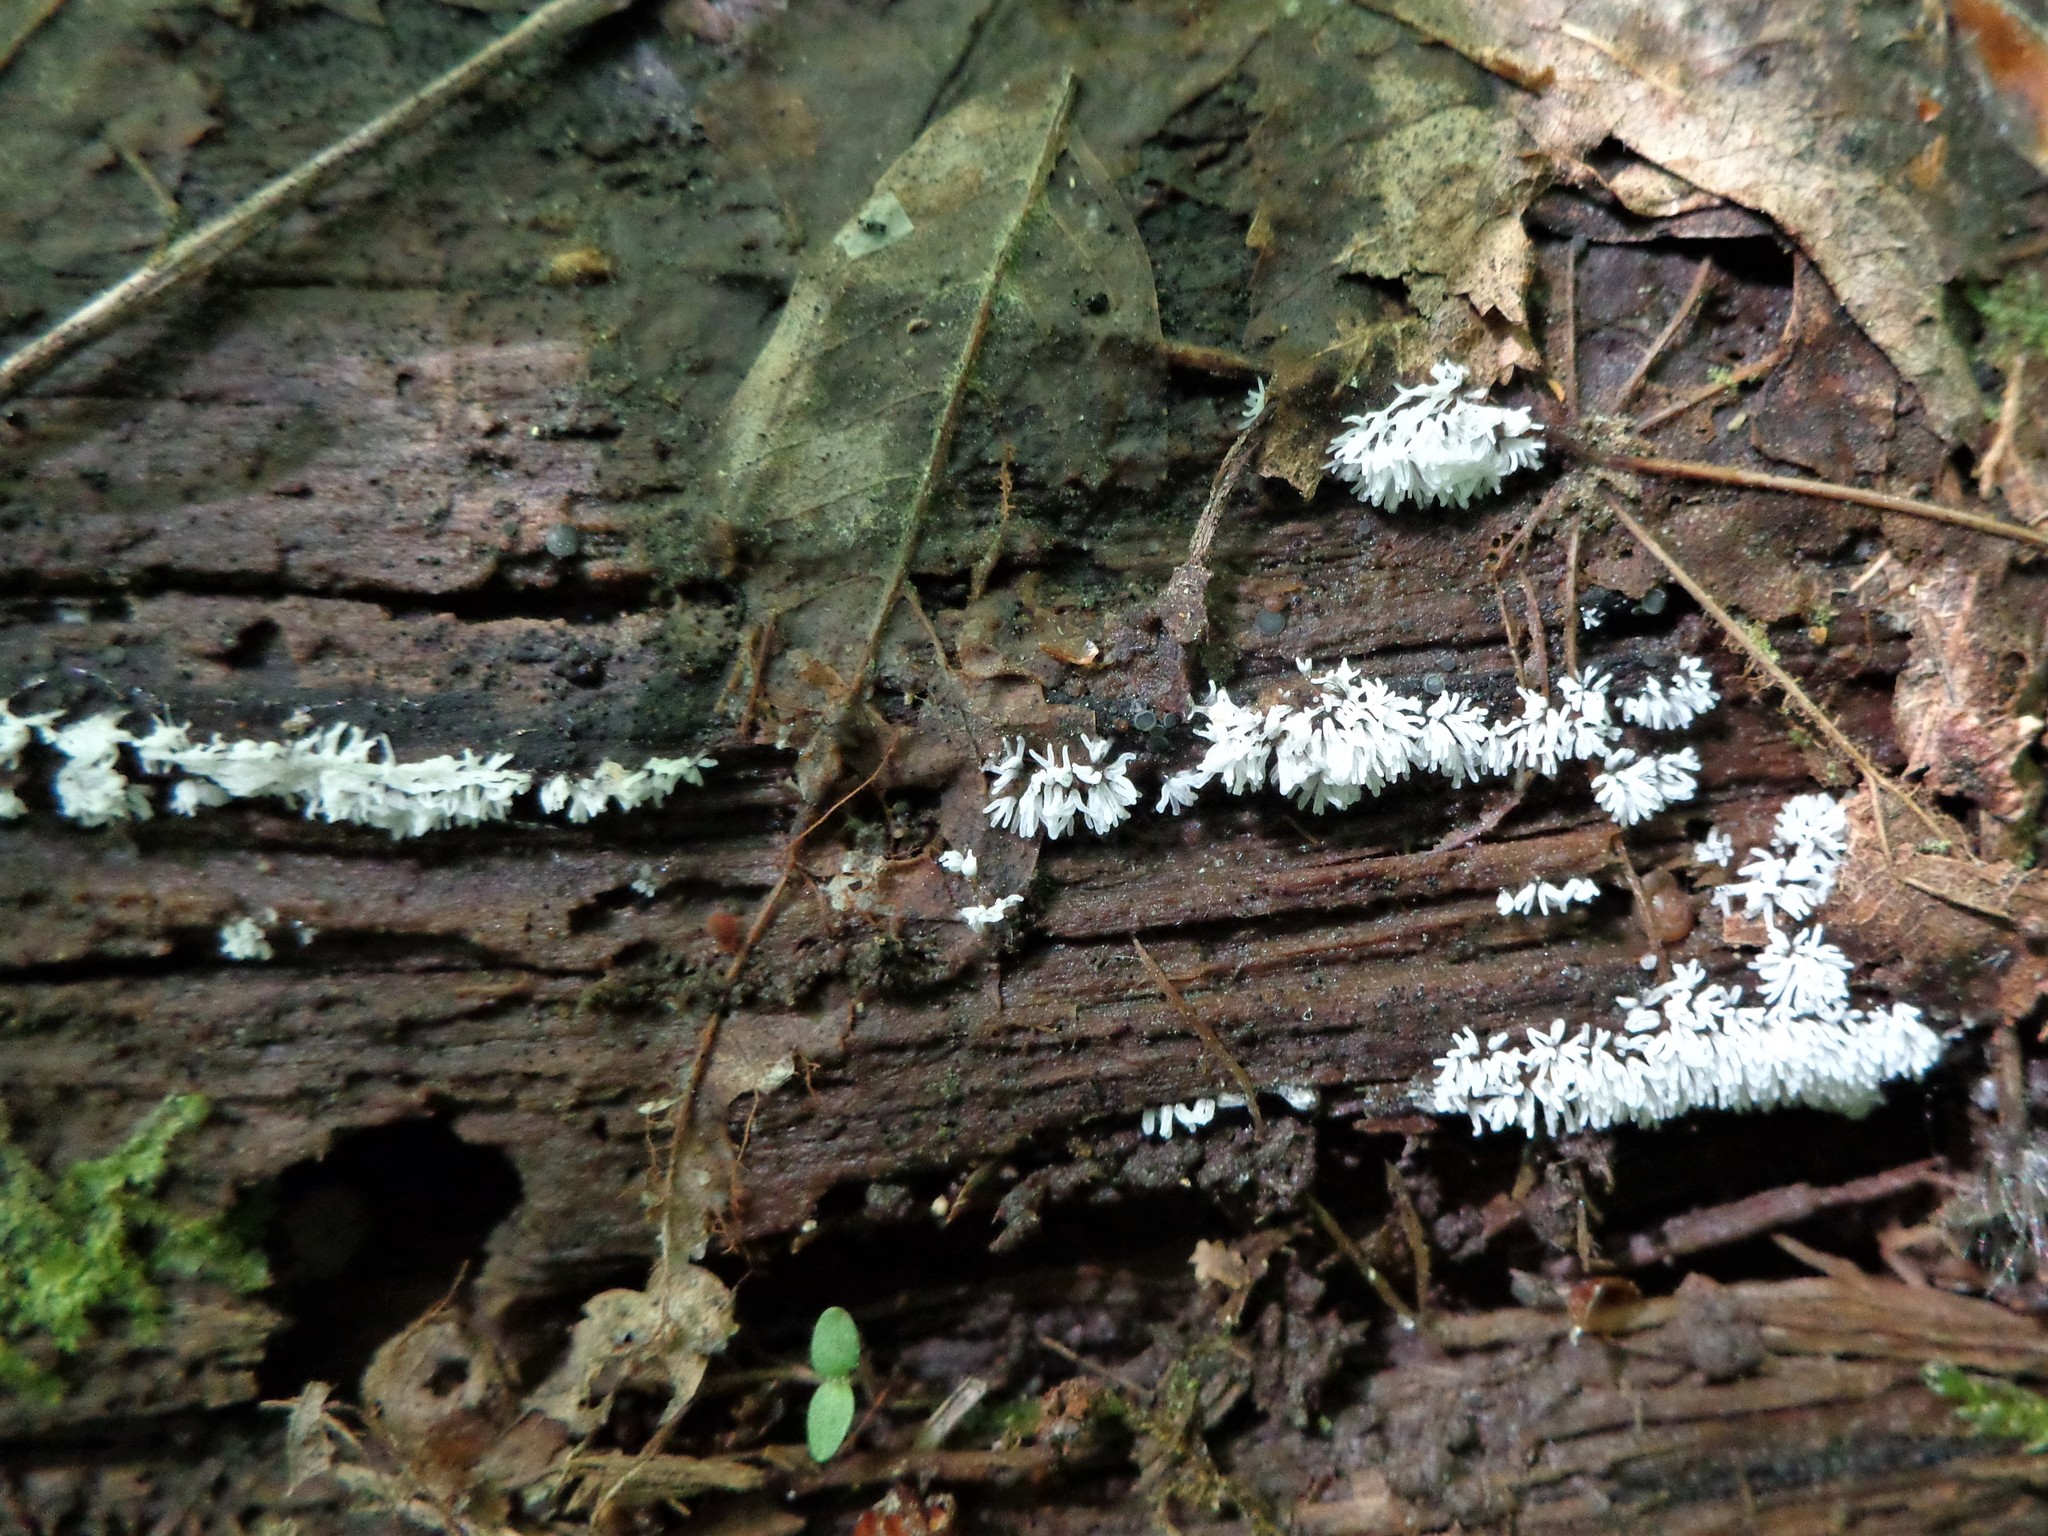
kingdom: Protozoa
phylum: Mycetozoa
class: Protosteliomycetes
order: Ceratiomyxales
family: Ceratiomyxaceae
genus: Ceratiomyxa
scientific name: Ceratiomyxa fruticulosa
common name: Honeycomb coral slime mold
